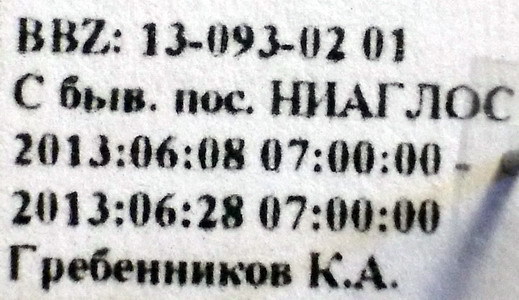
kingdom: Animalia
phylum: Arthropoda
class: Insecta
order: Hemiptera
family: Rhyparochromidae
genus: Emblethis
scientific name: Emblethis ciliatus
